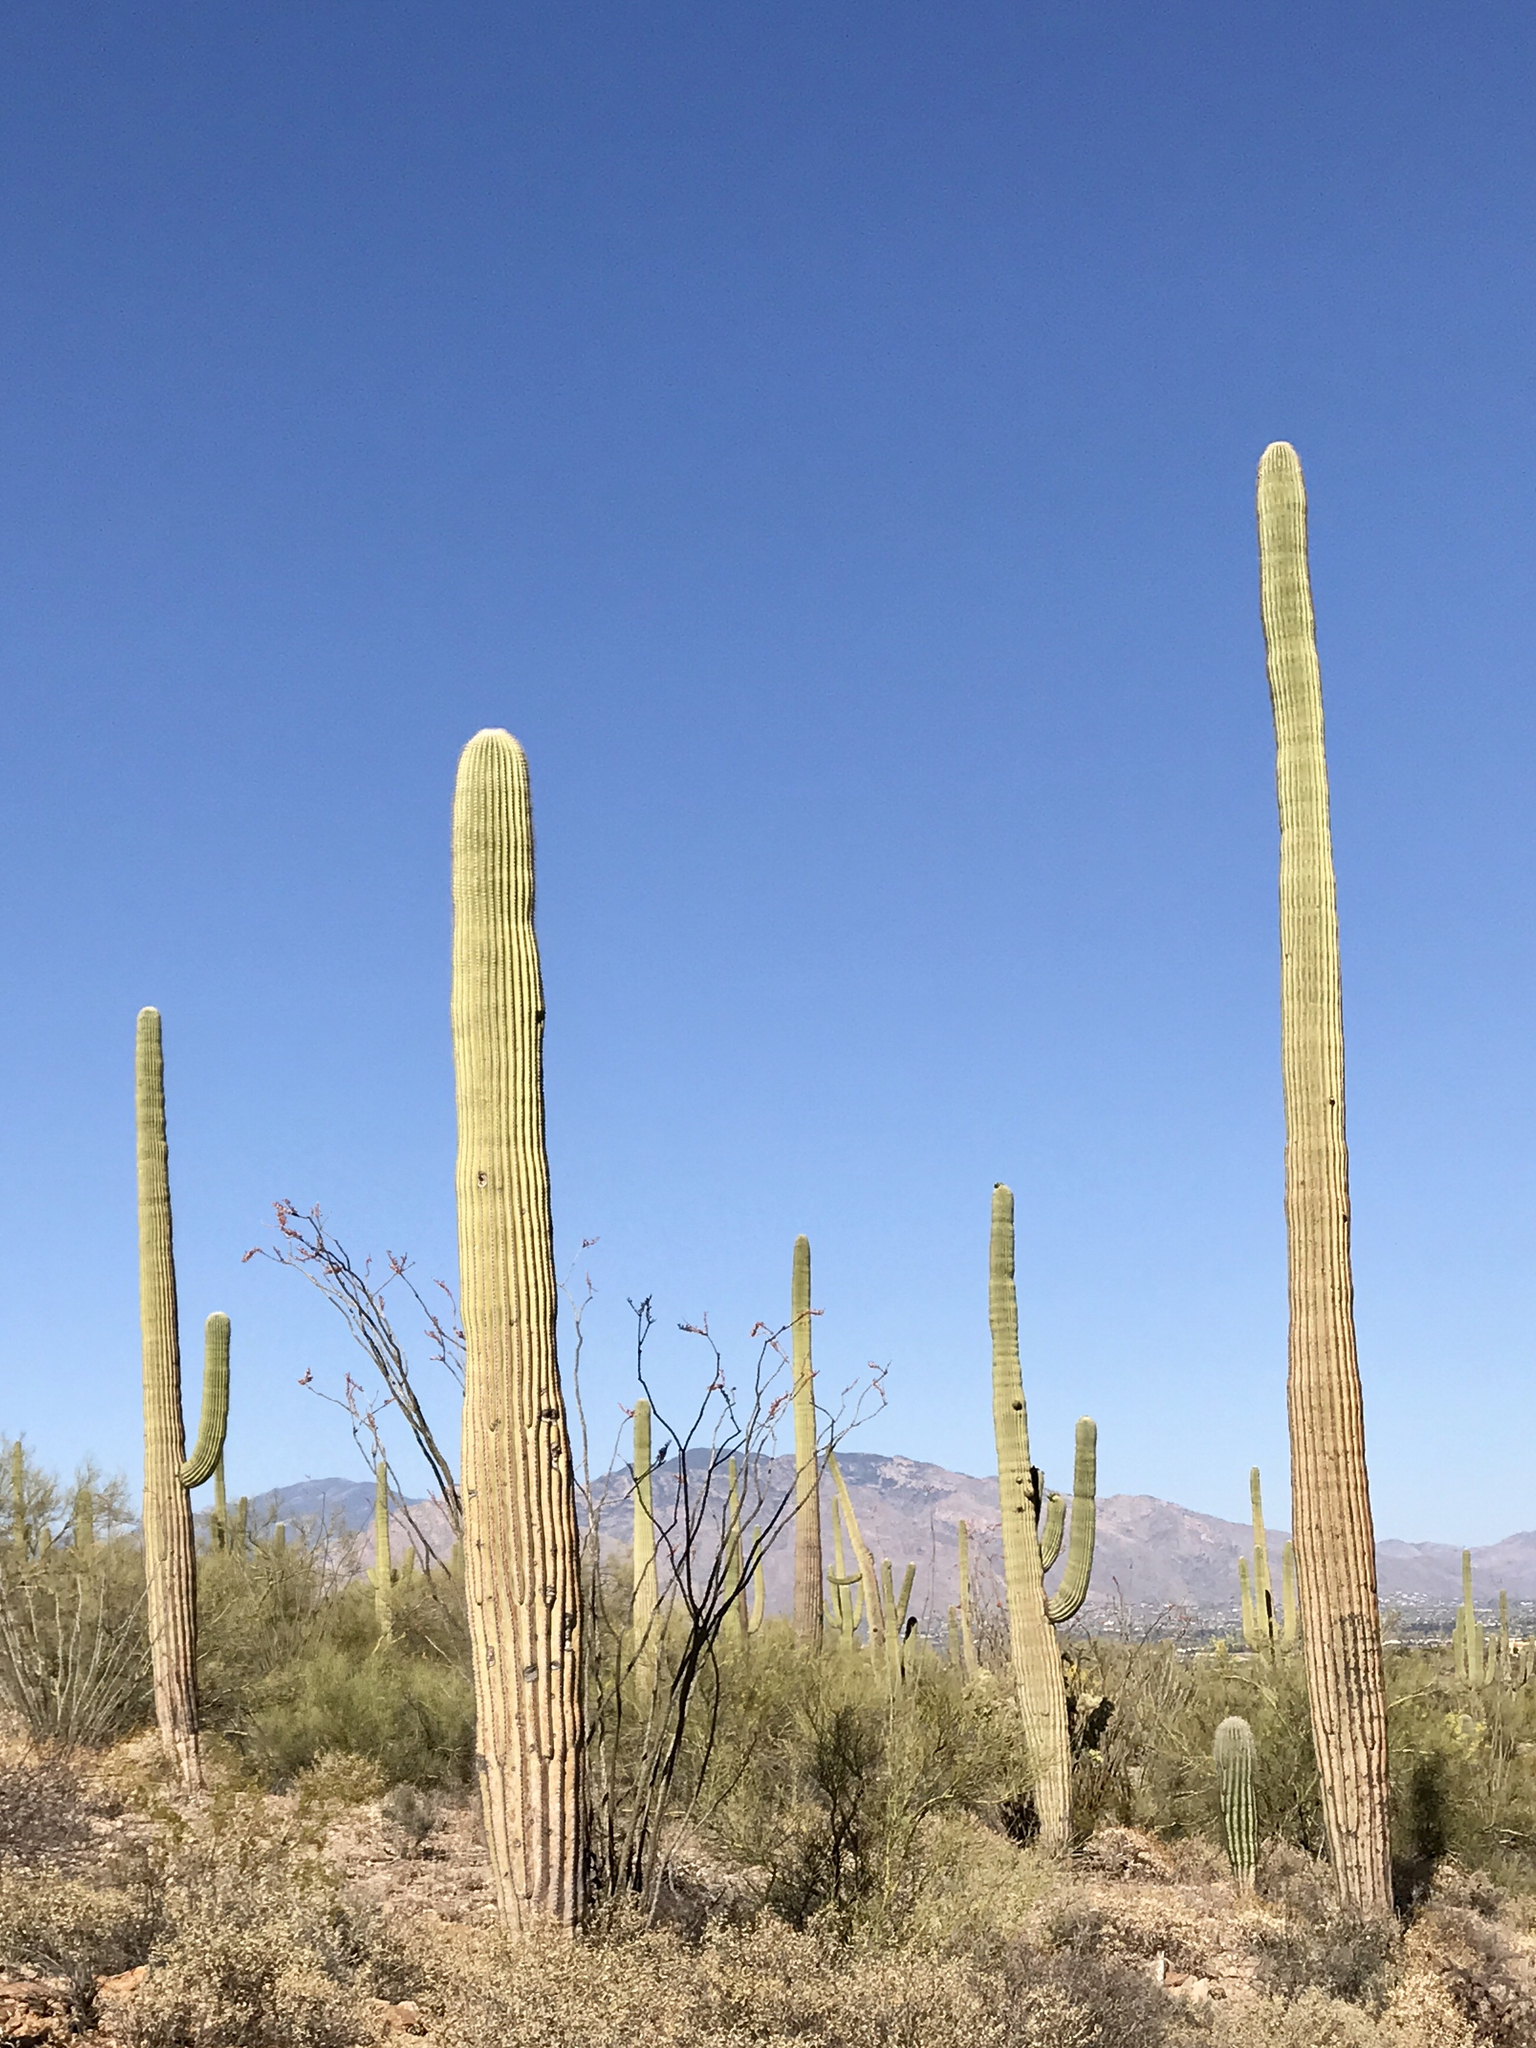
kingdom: Plantae
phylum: Tracheophyta
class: Magnoliopsida
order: Caryophyllales
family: Cactaceae
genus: Carnegiea
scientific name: Carnegiea gigantea
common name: Saguaro
